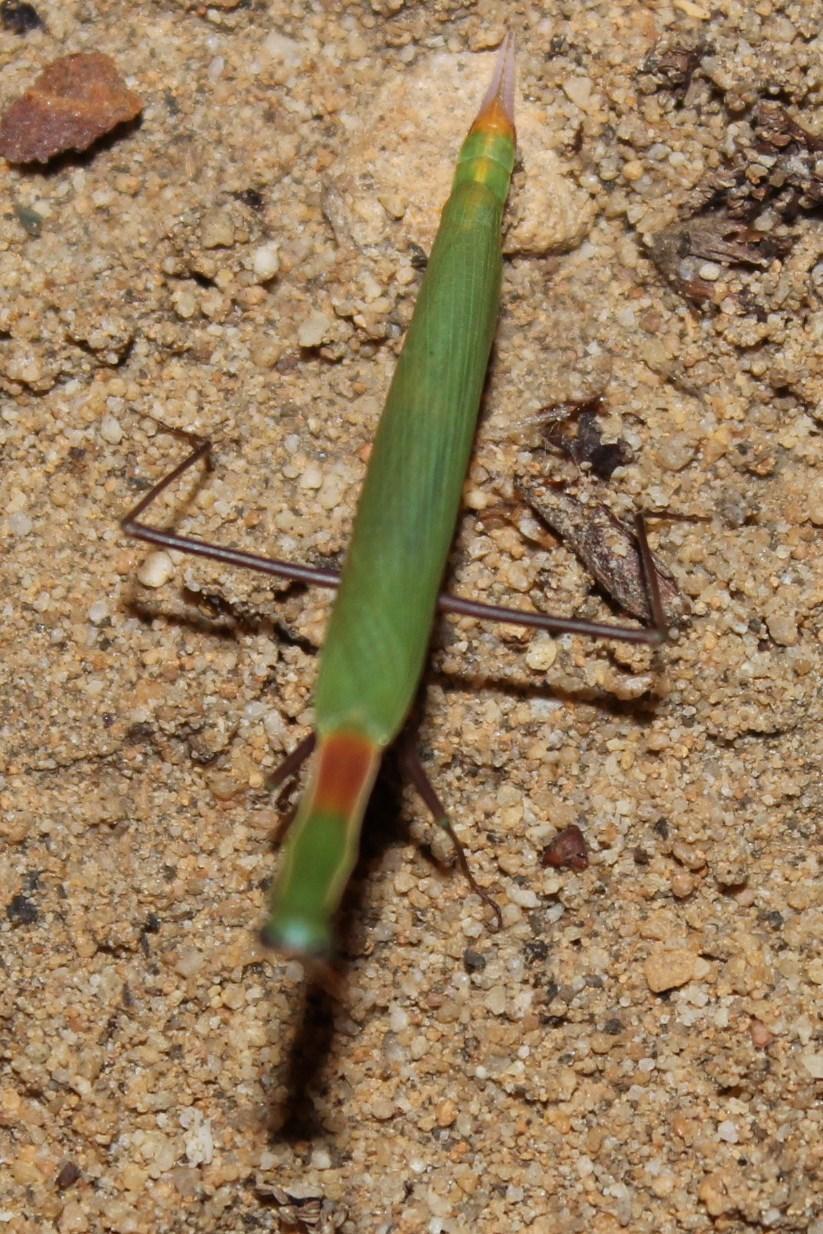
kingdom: Animalia
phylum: Arthropoda
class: Insecta
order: Mantodea
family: Eremiaphilidae
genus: Episcopomantis
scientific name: Episcopomantis chalybea
